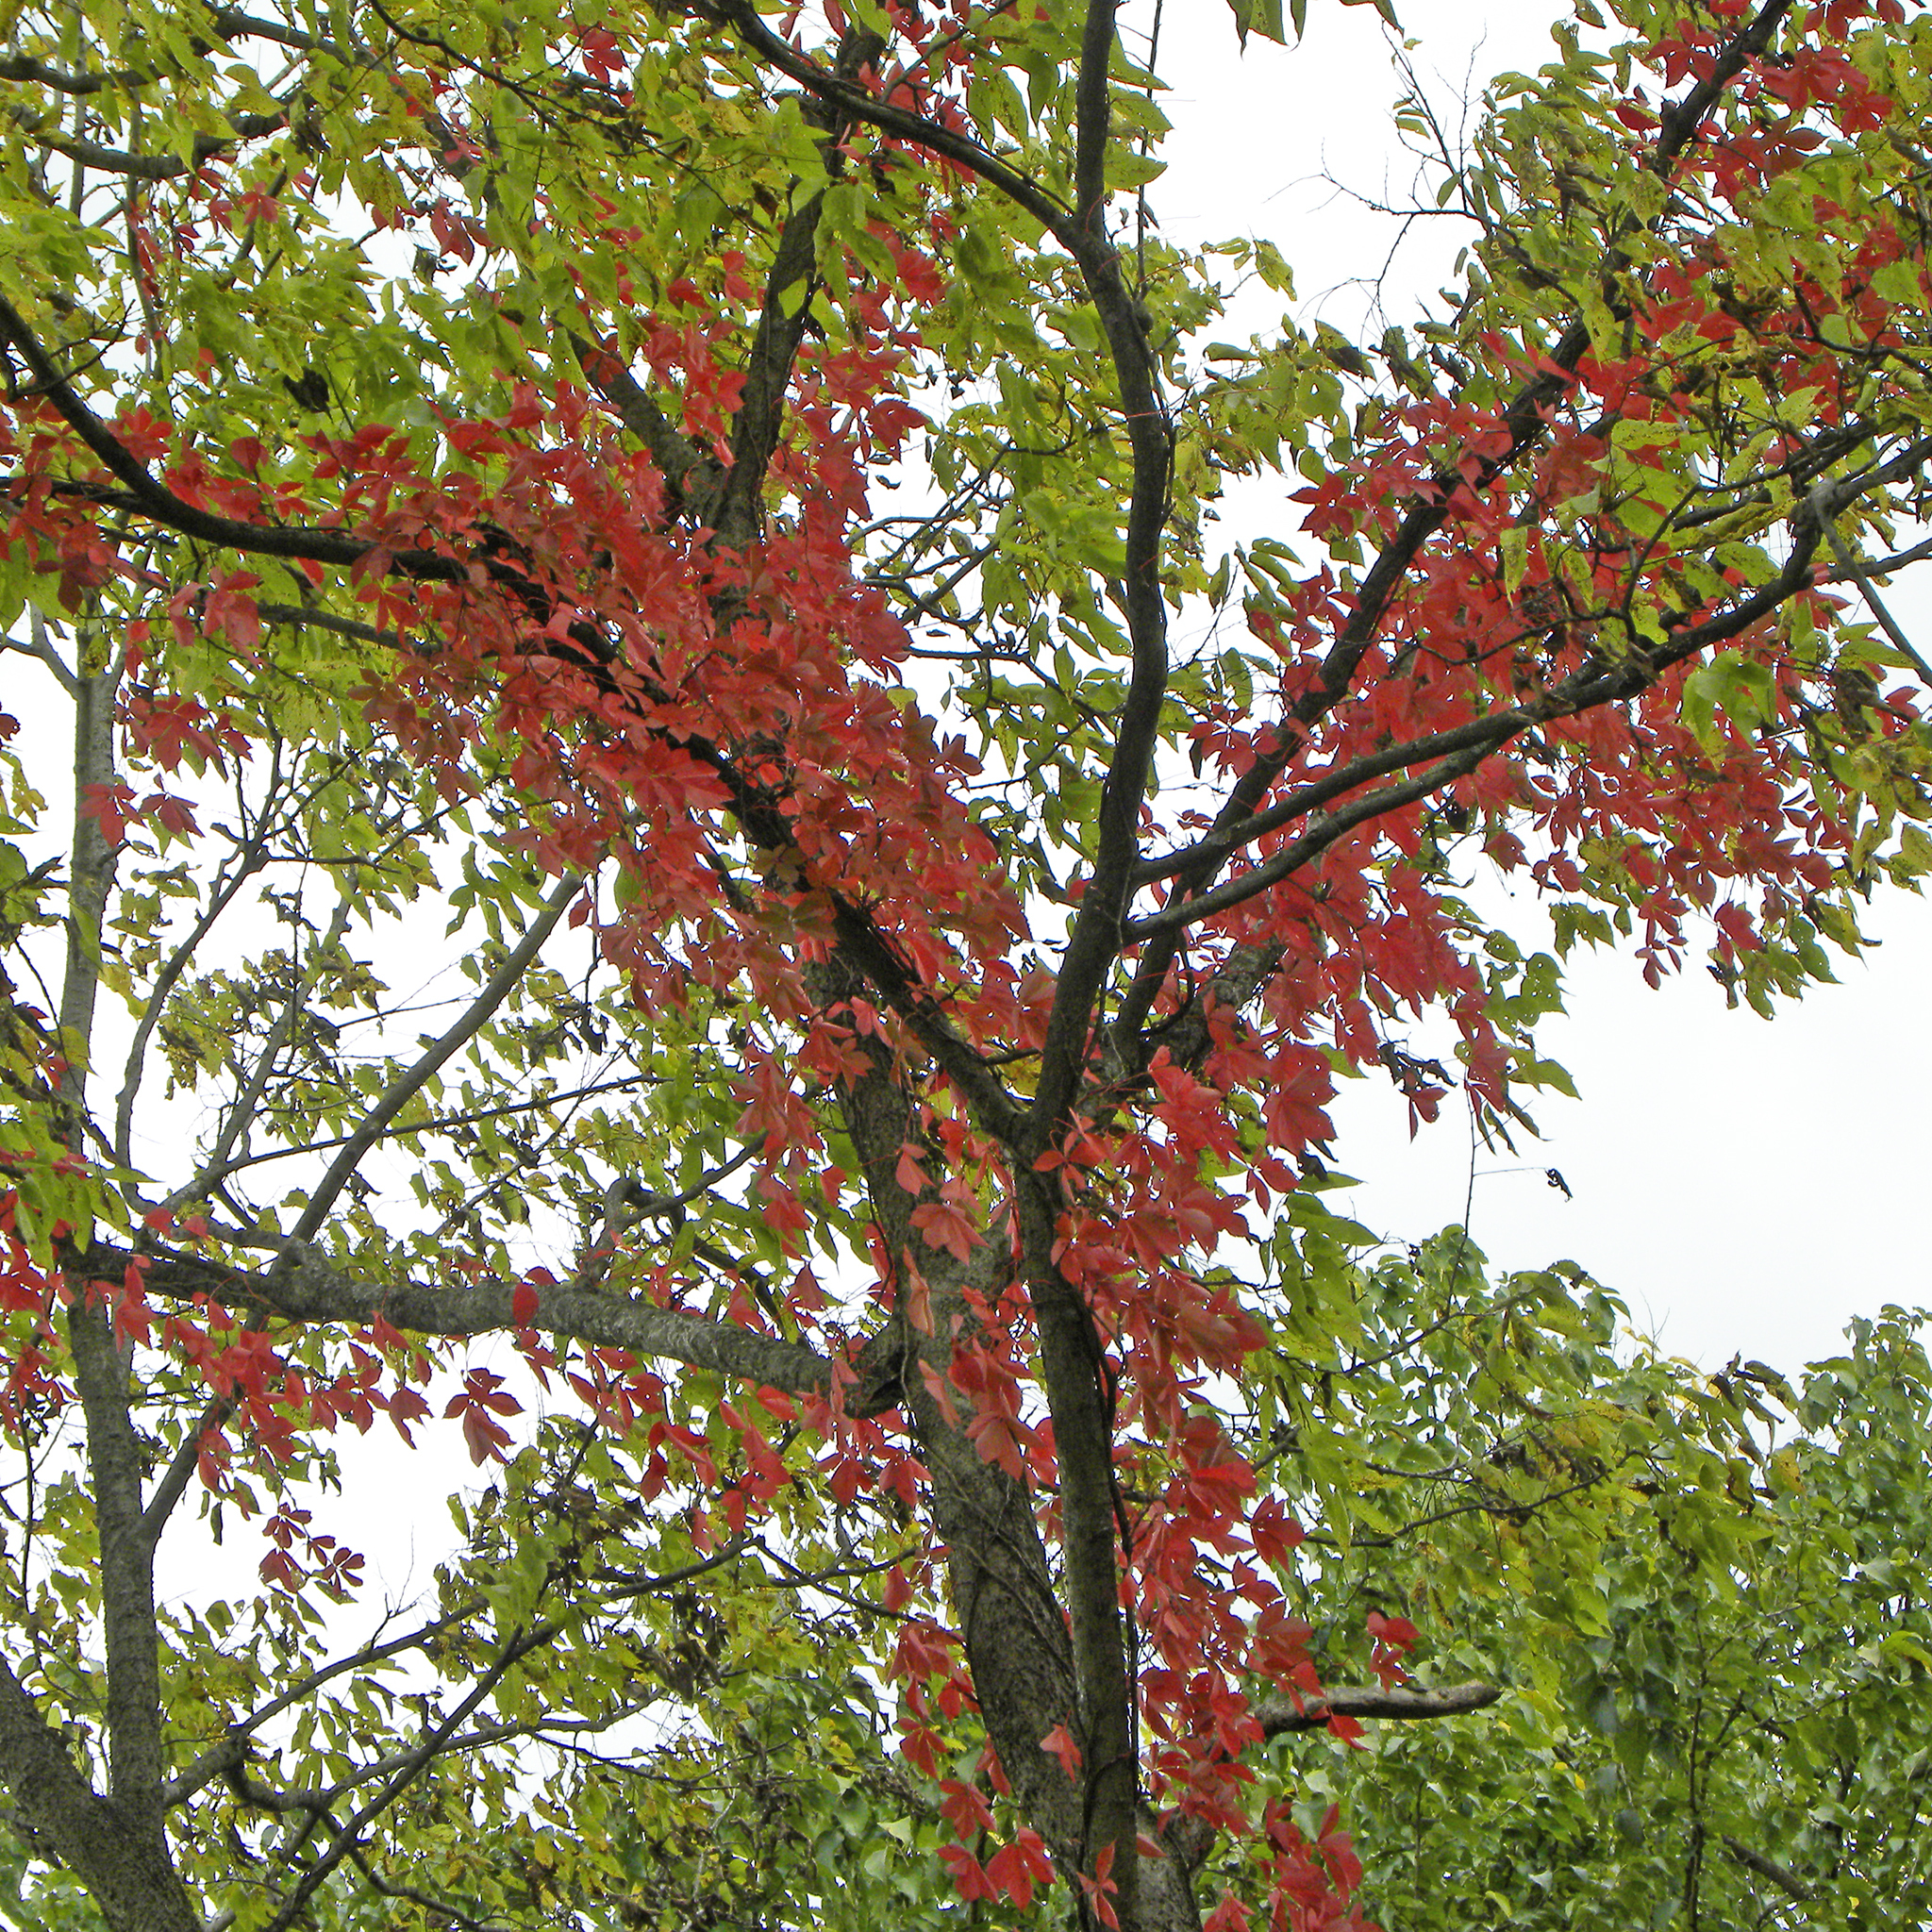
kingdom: Plantae
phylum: Tracheophyta
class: Magnoliopsida
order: Vitales
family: Vitaceae
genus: Parthenocissus
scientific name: Parthenocissus quinquefolia
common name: Virginia-creeper
